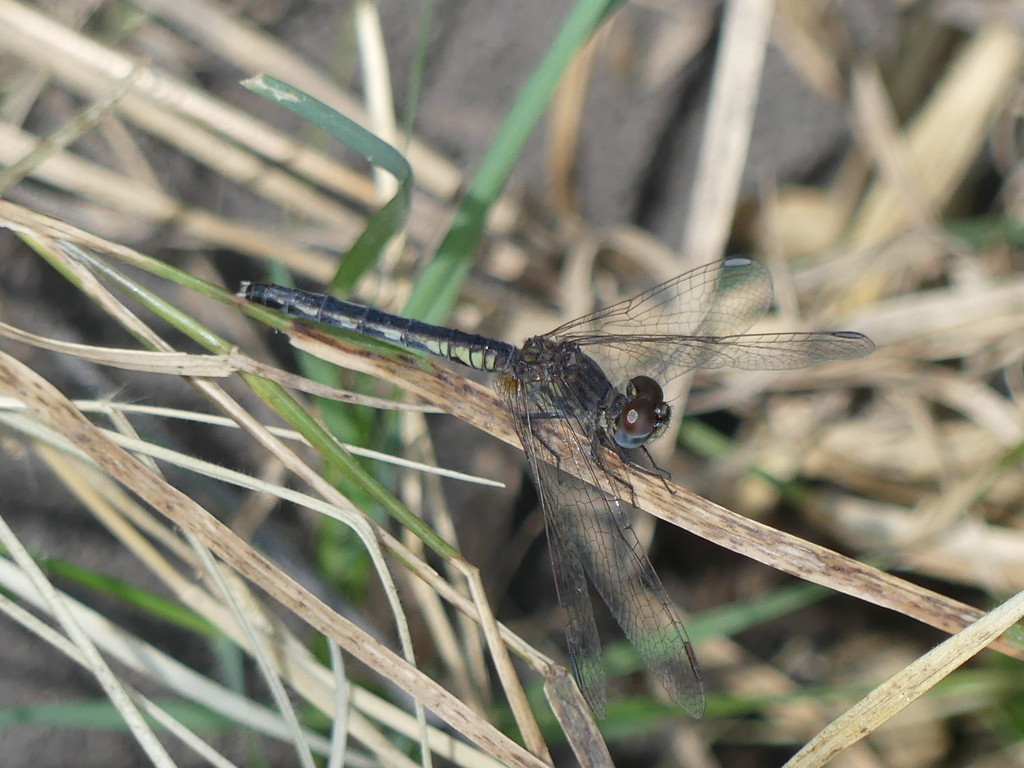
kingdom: Animalia
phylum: Arthropoda
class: Insecta
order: Odonata
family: Libellulidae
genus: Diplacodes
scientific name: Diplacodes lefebvrii
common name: Black percher
